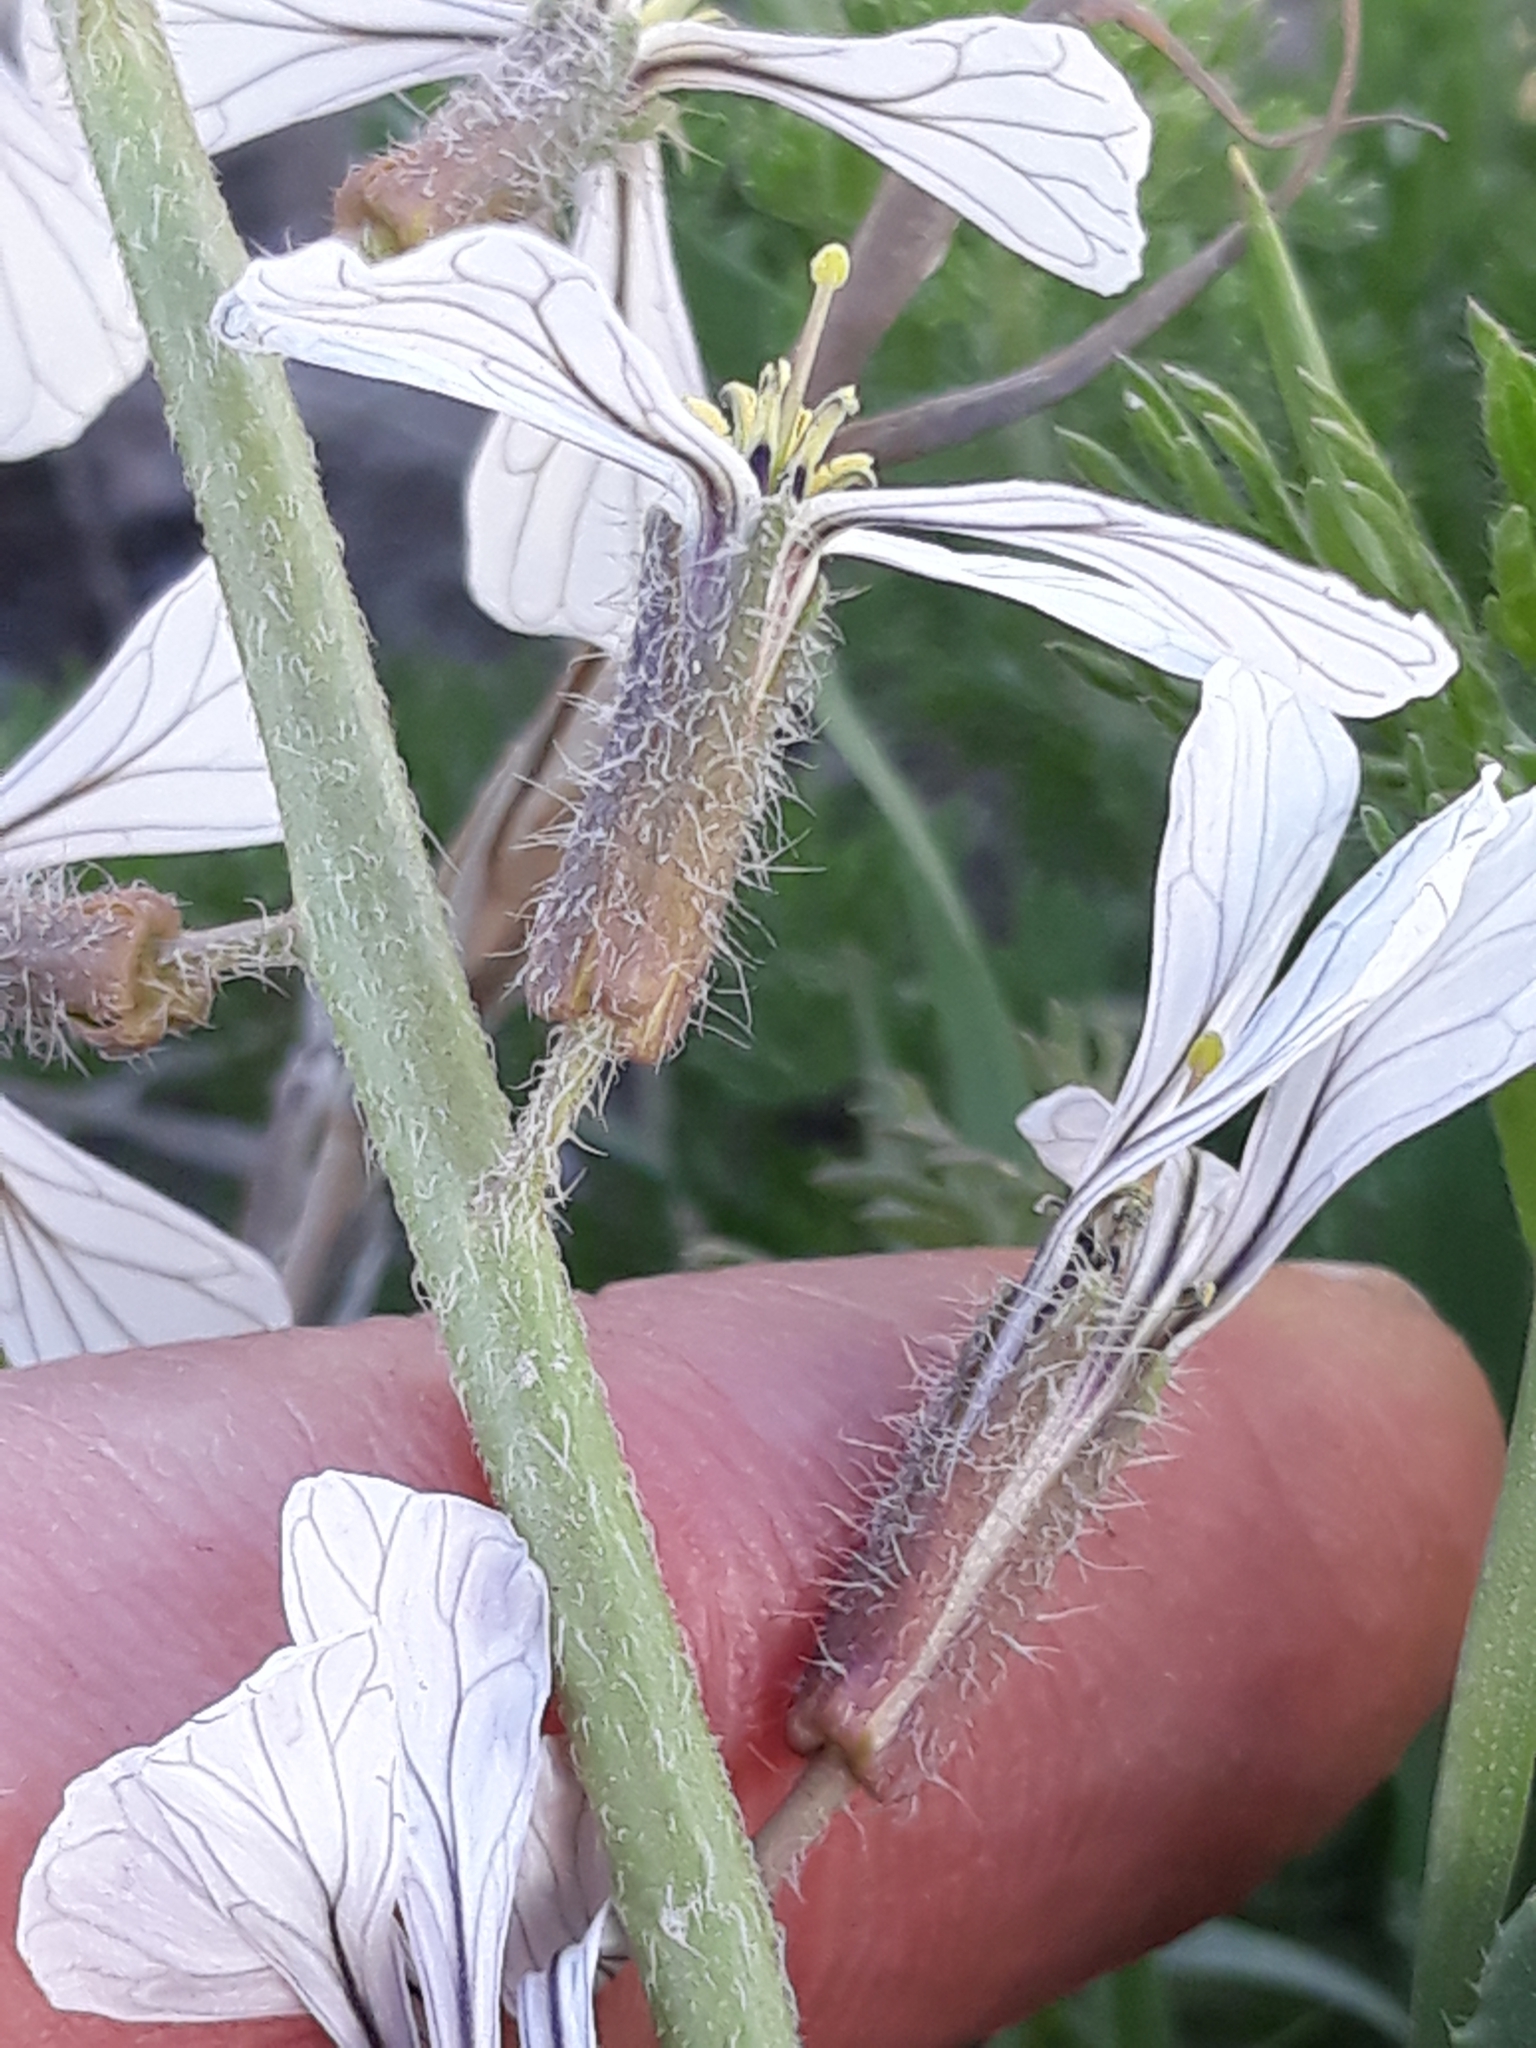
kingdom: Plantae
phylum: Tracheophyta
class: Magnoliopsida
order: Brassicales
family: Brassicaceae
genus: Eruca
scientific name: Eruca vesicaria
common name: Garden rocket
